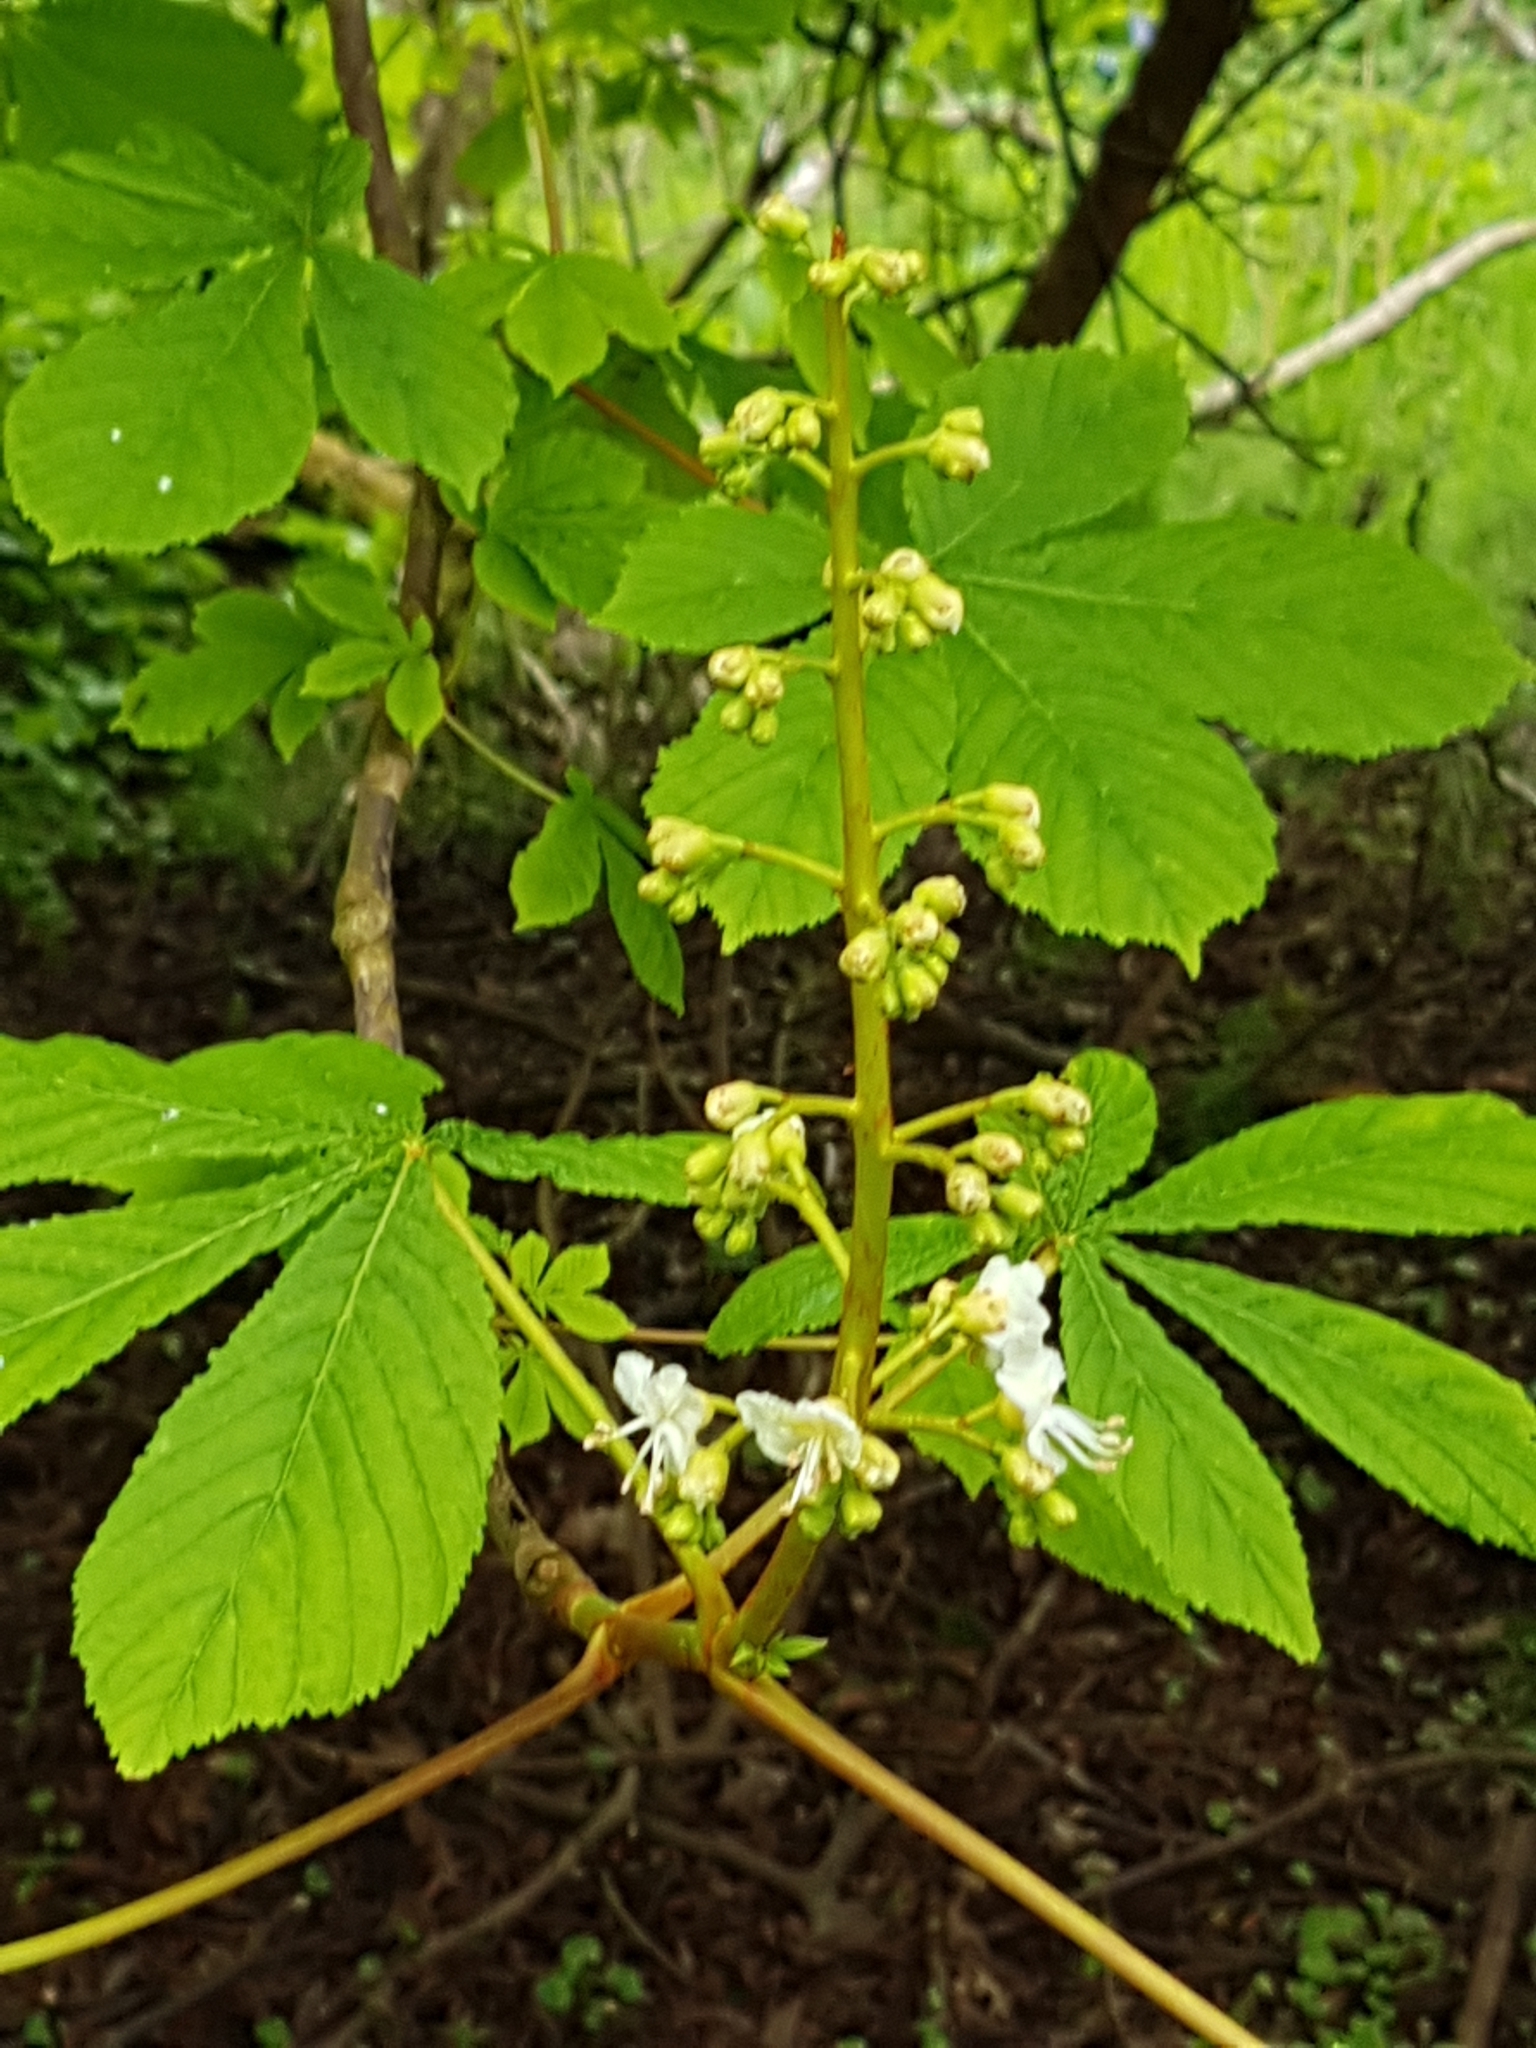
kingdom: Plantae
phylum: Tracheophyta
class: Magnoliopsida
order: Sapindales
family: Sapindaceae
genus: Aesculus
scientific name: Aesculus hippocastanum
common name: Horse-chestnut
